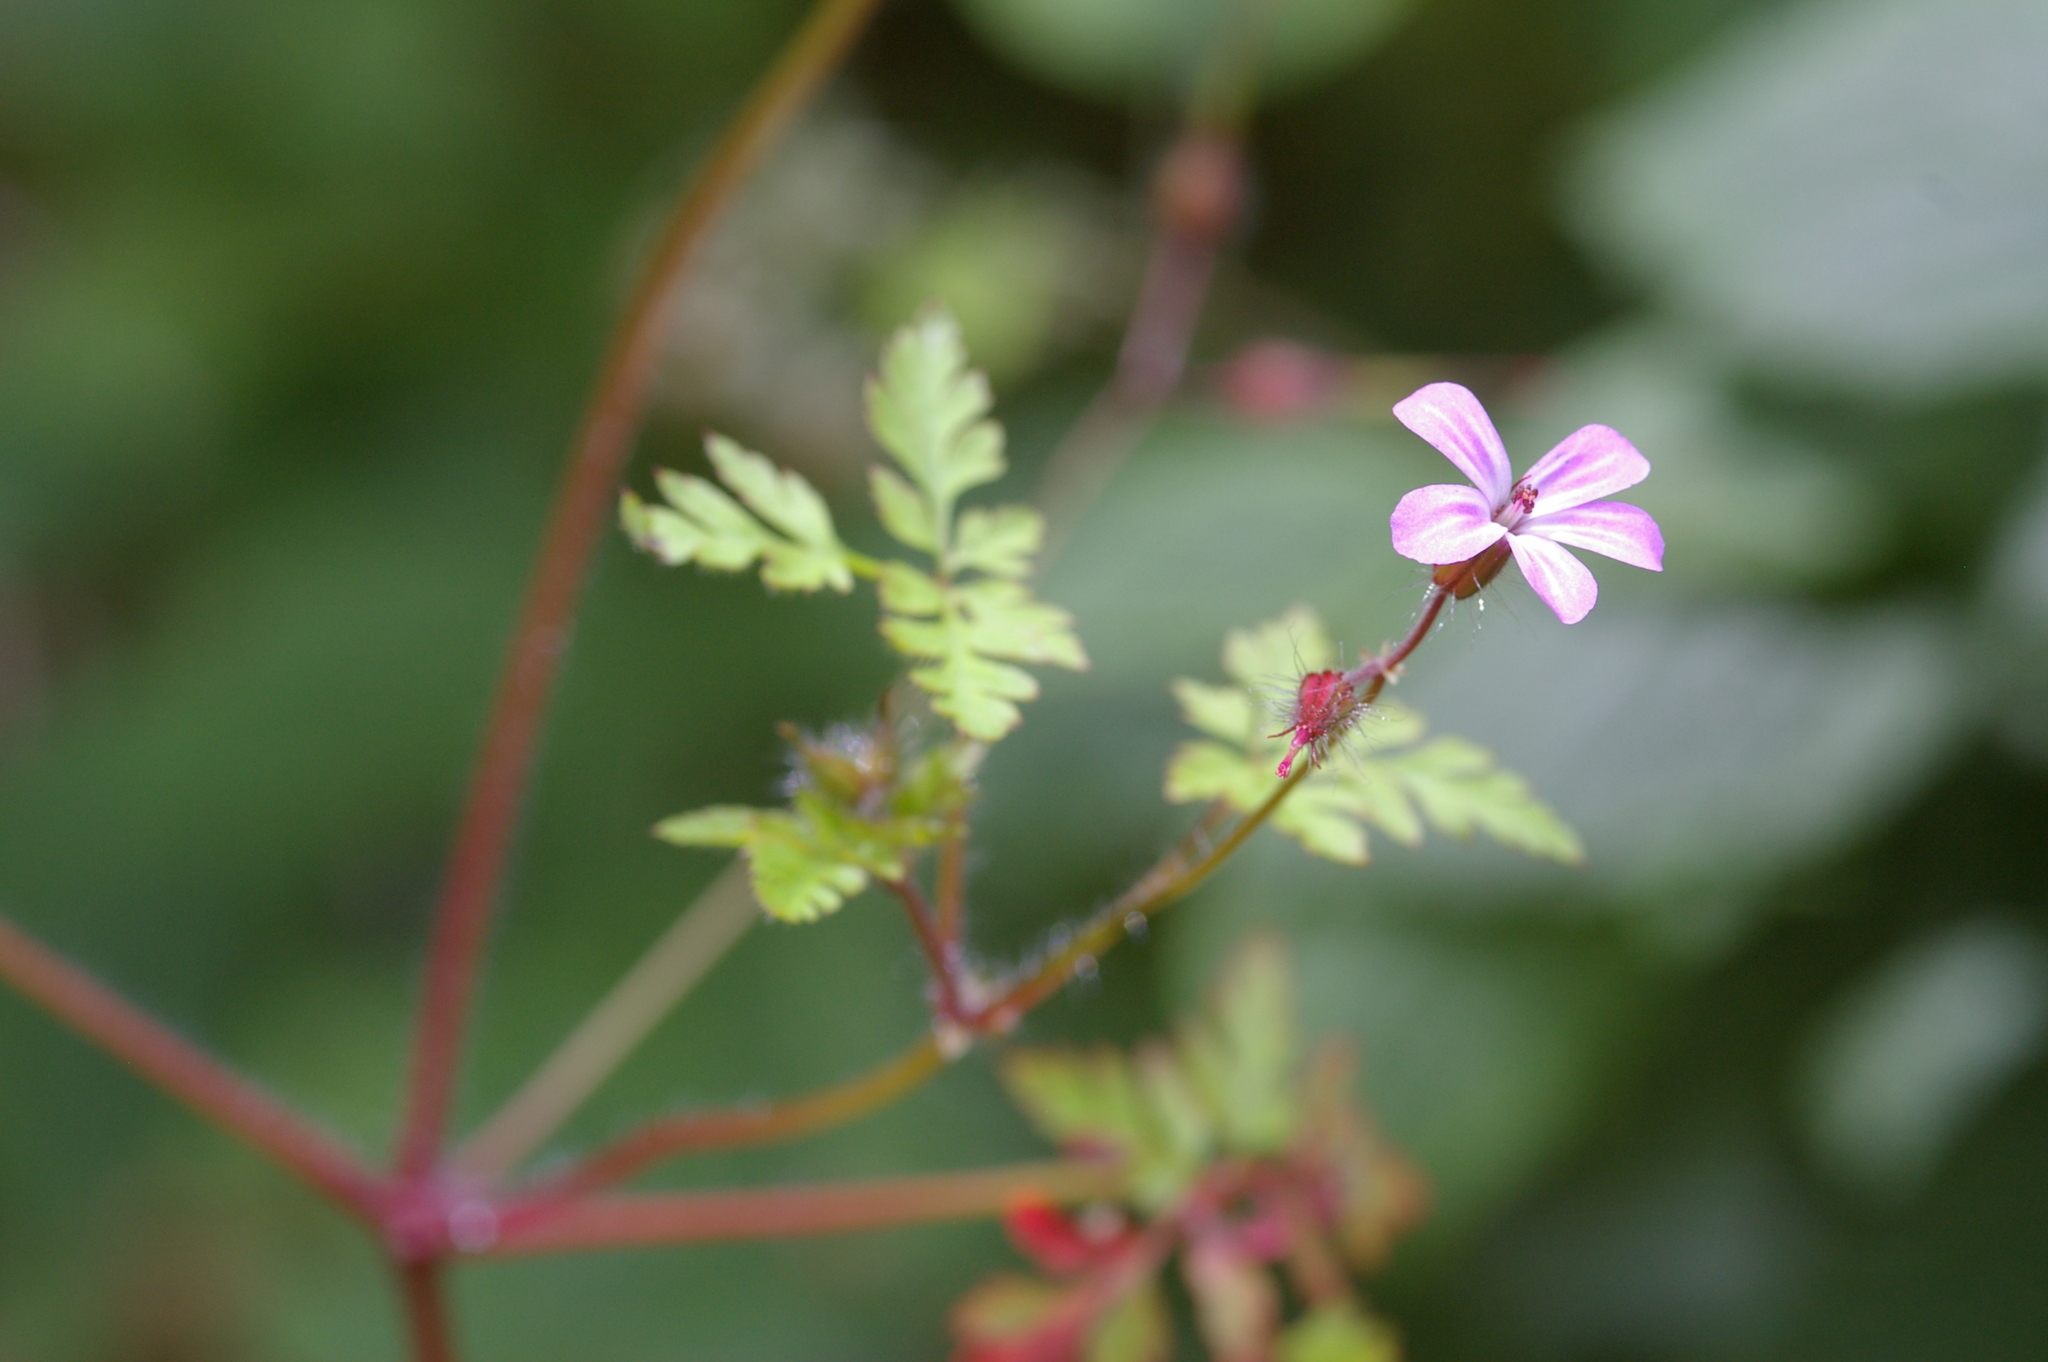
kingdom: Plantae
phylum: Tracheophyta
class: Magnoliopsida
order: Geraniales
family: Geraniaceae
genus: Geranium
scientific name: Geranium robertianum
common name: Herb-robert
